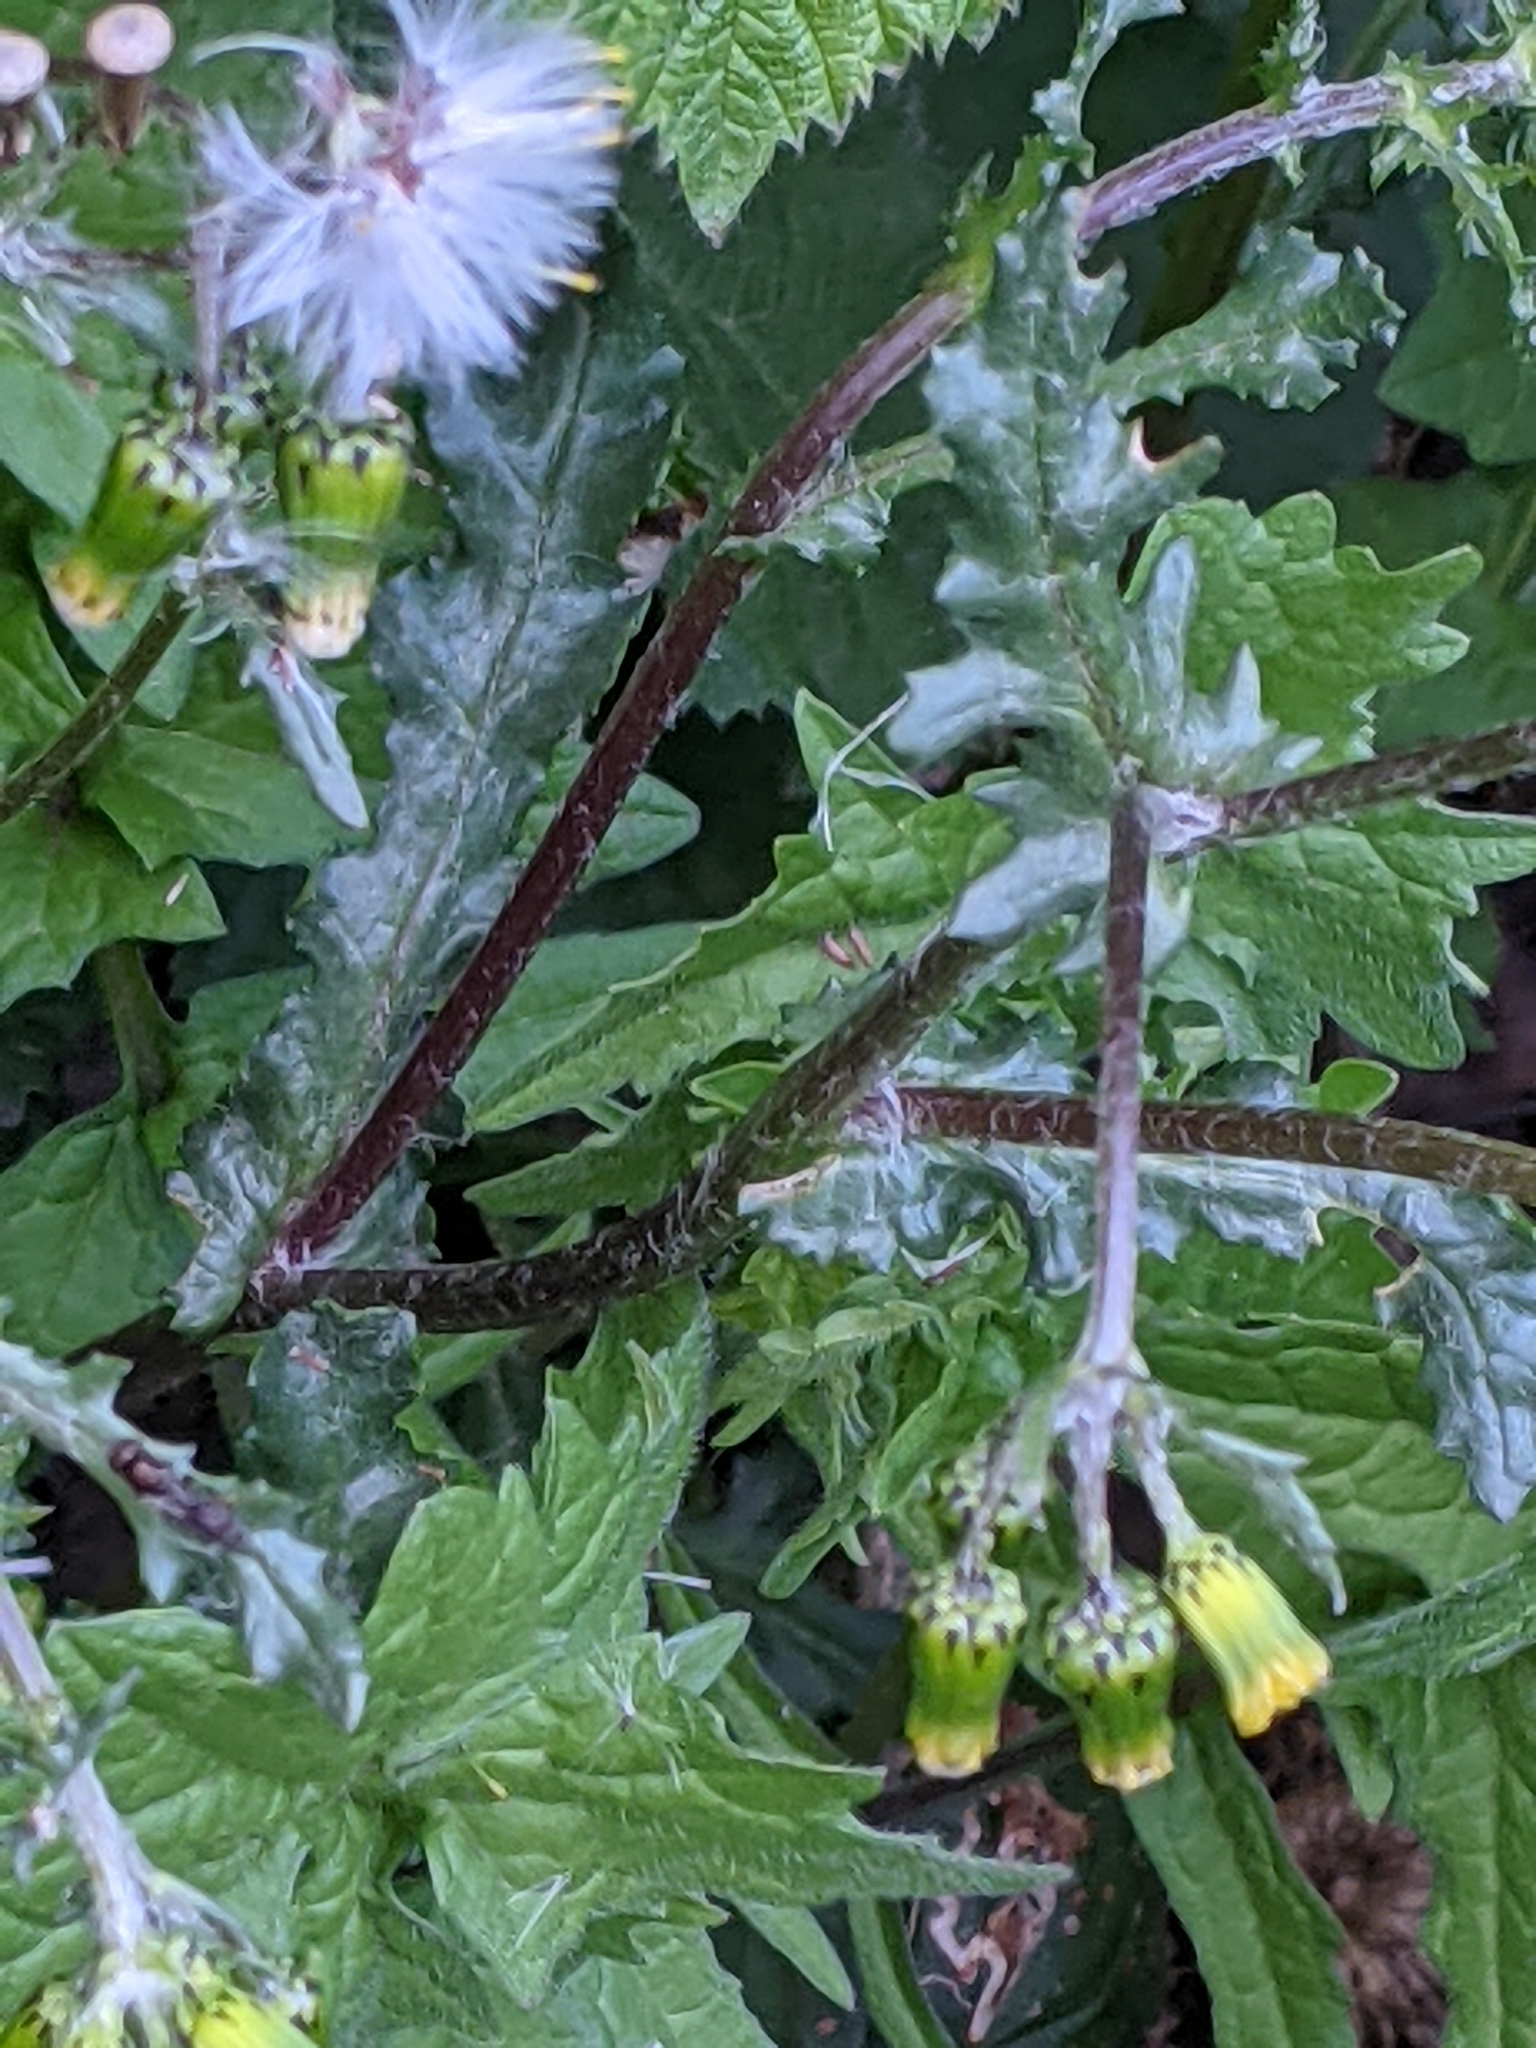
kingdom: Plantae
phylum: Tracheophyta
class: Magnoliopsida
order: Asterales
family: Asteraceae
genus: Senecio
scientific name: Senecio vulgaris
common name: Old-man-in-the-spring
